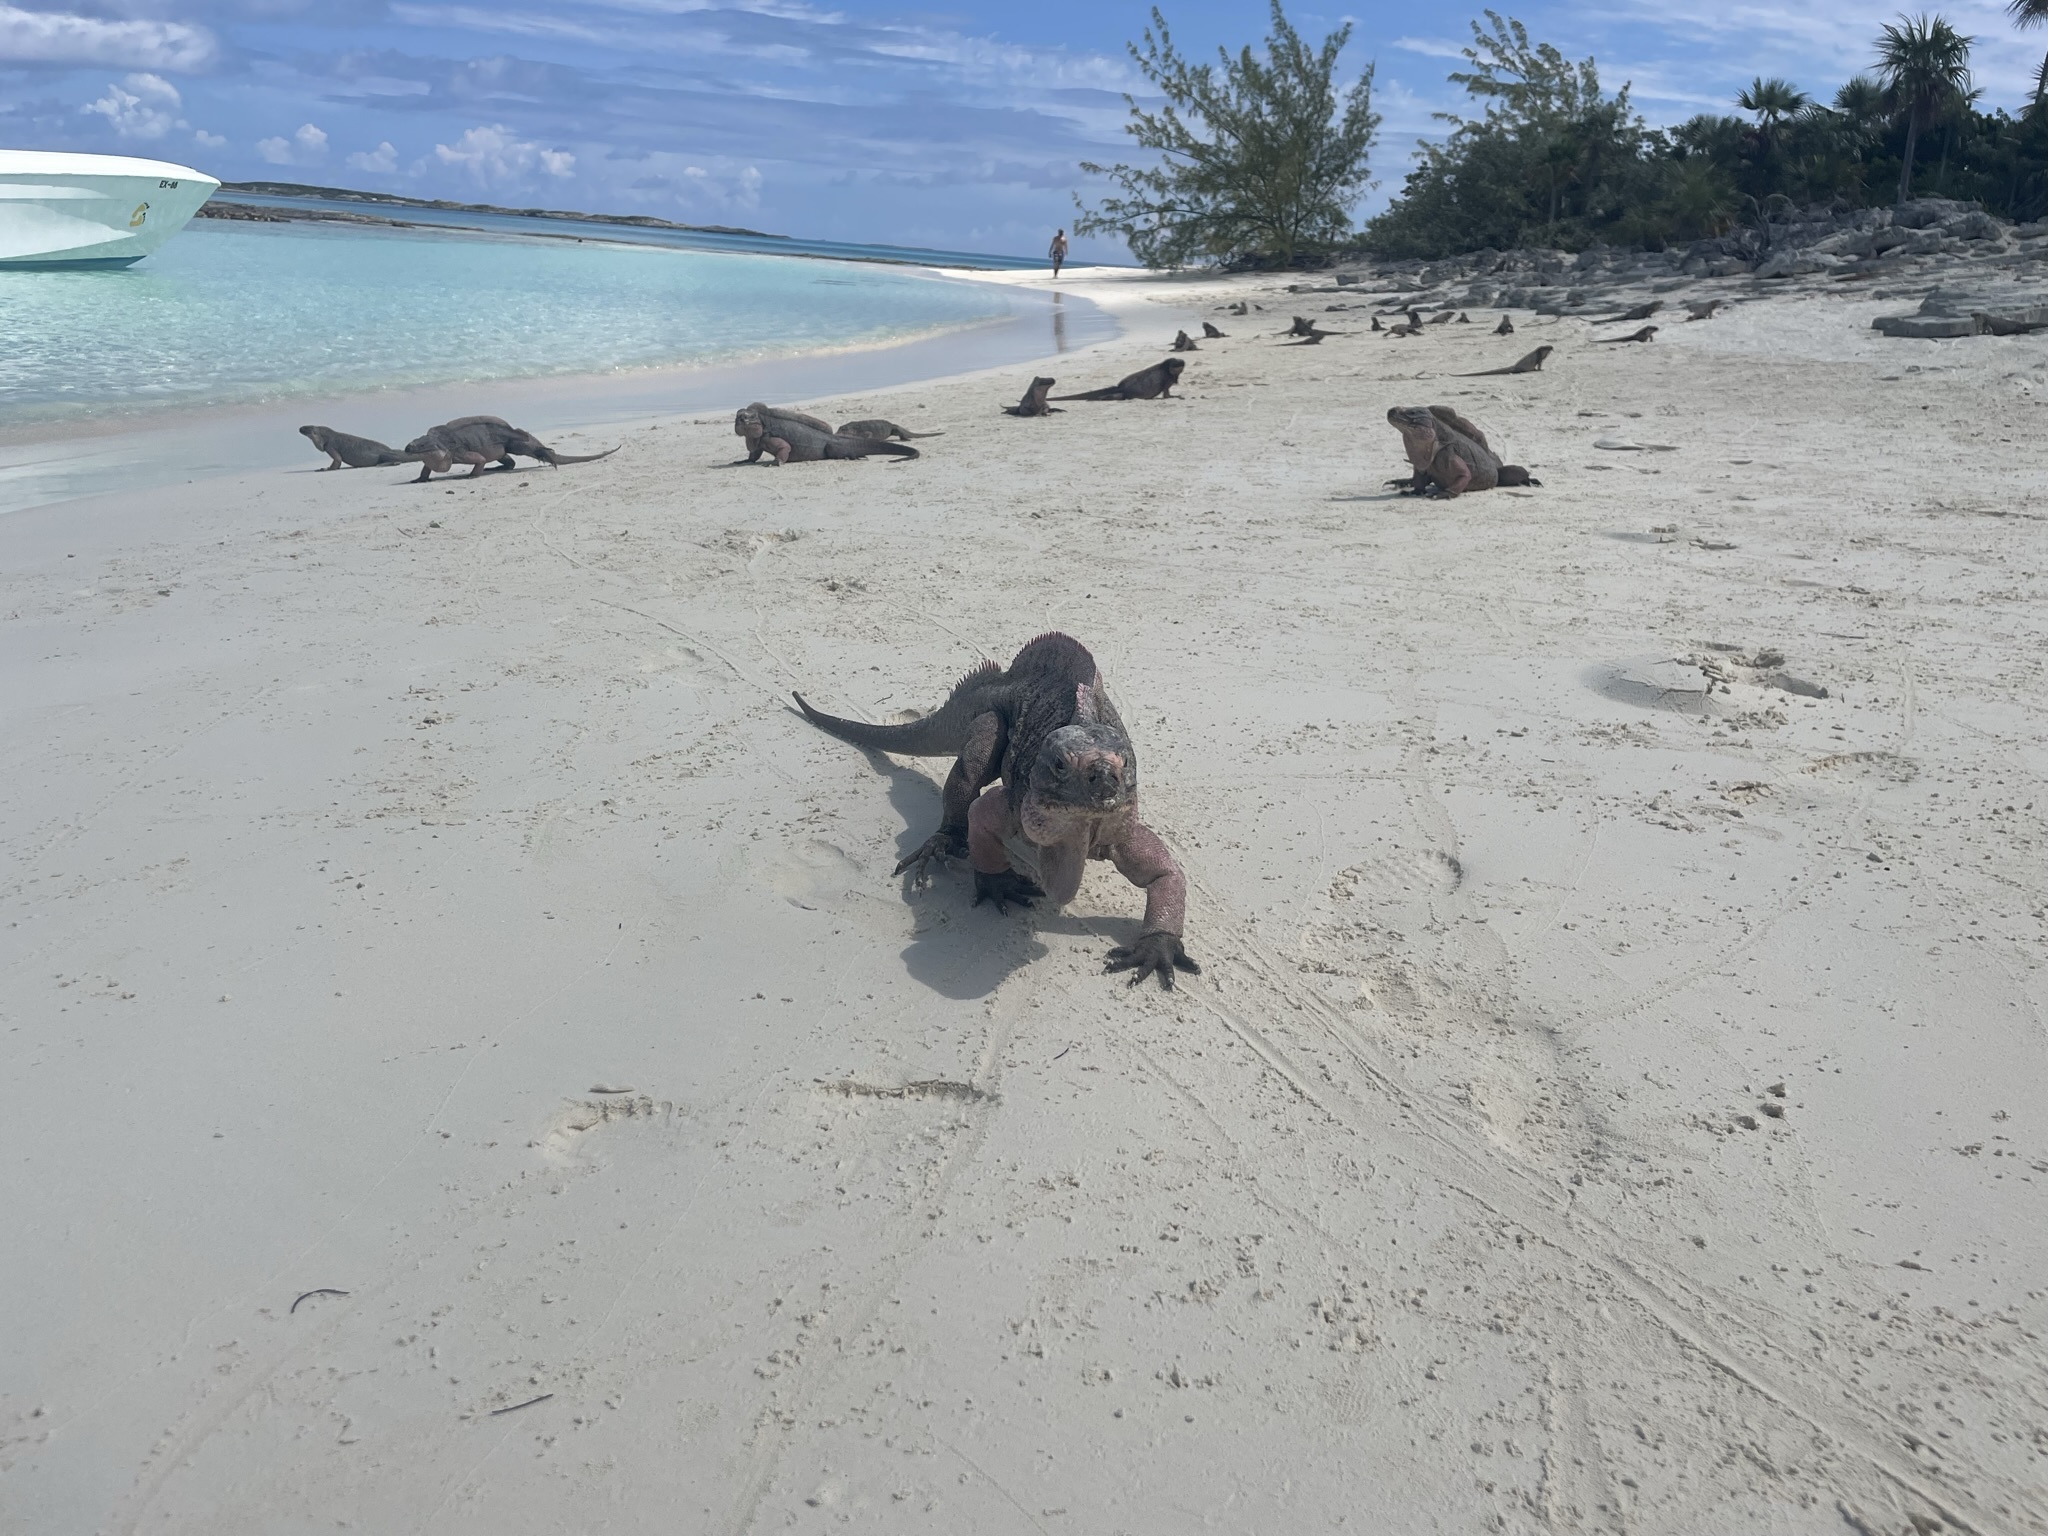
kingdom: Animalia
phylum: Chordata
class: Squamata
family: Iguanidae
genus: Cyclura
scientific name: Cyclura cychlura
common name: Northern bahamian rock iguana
